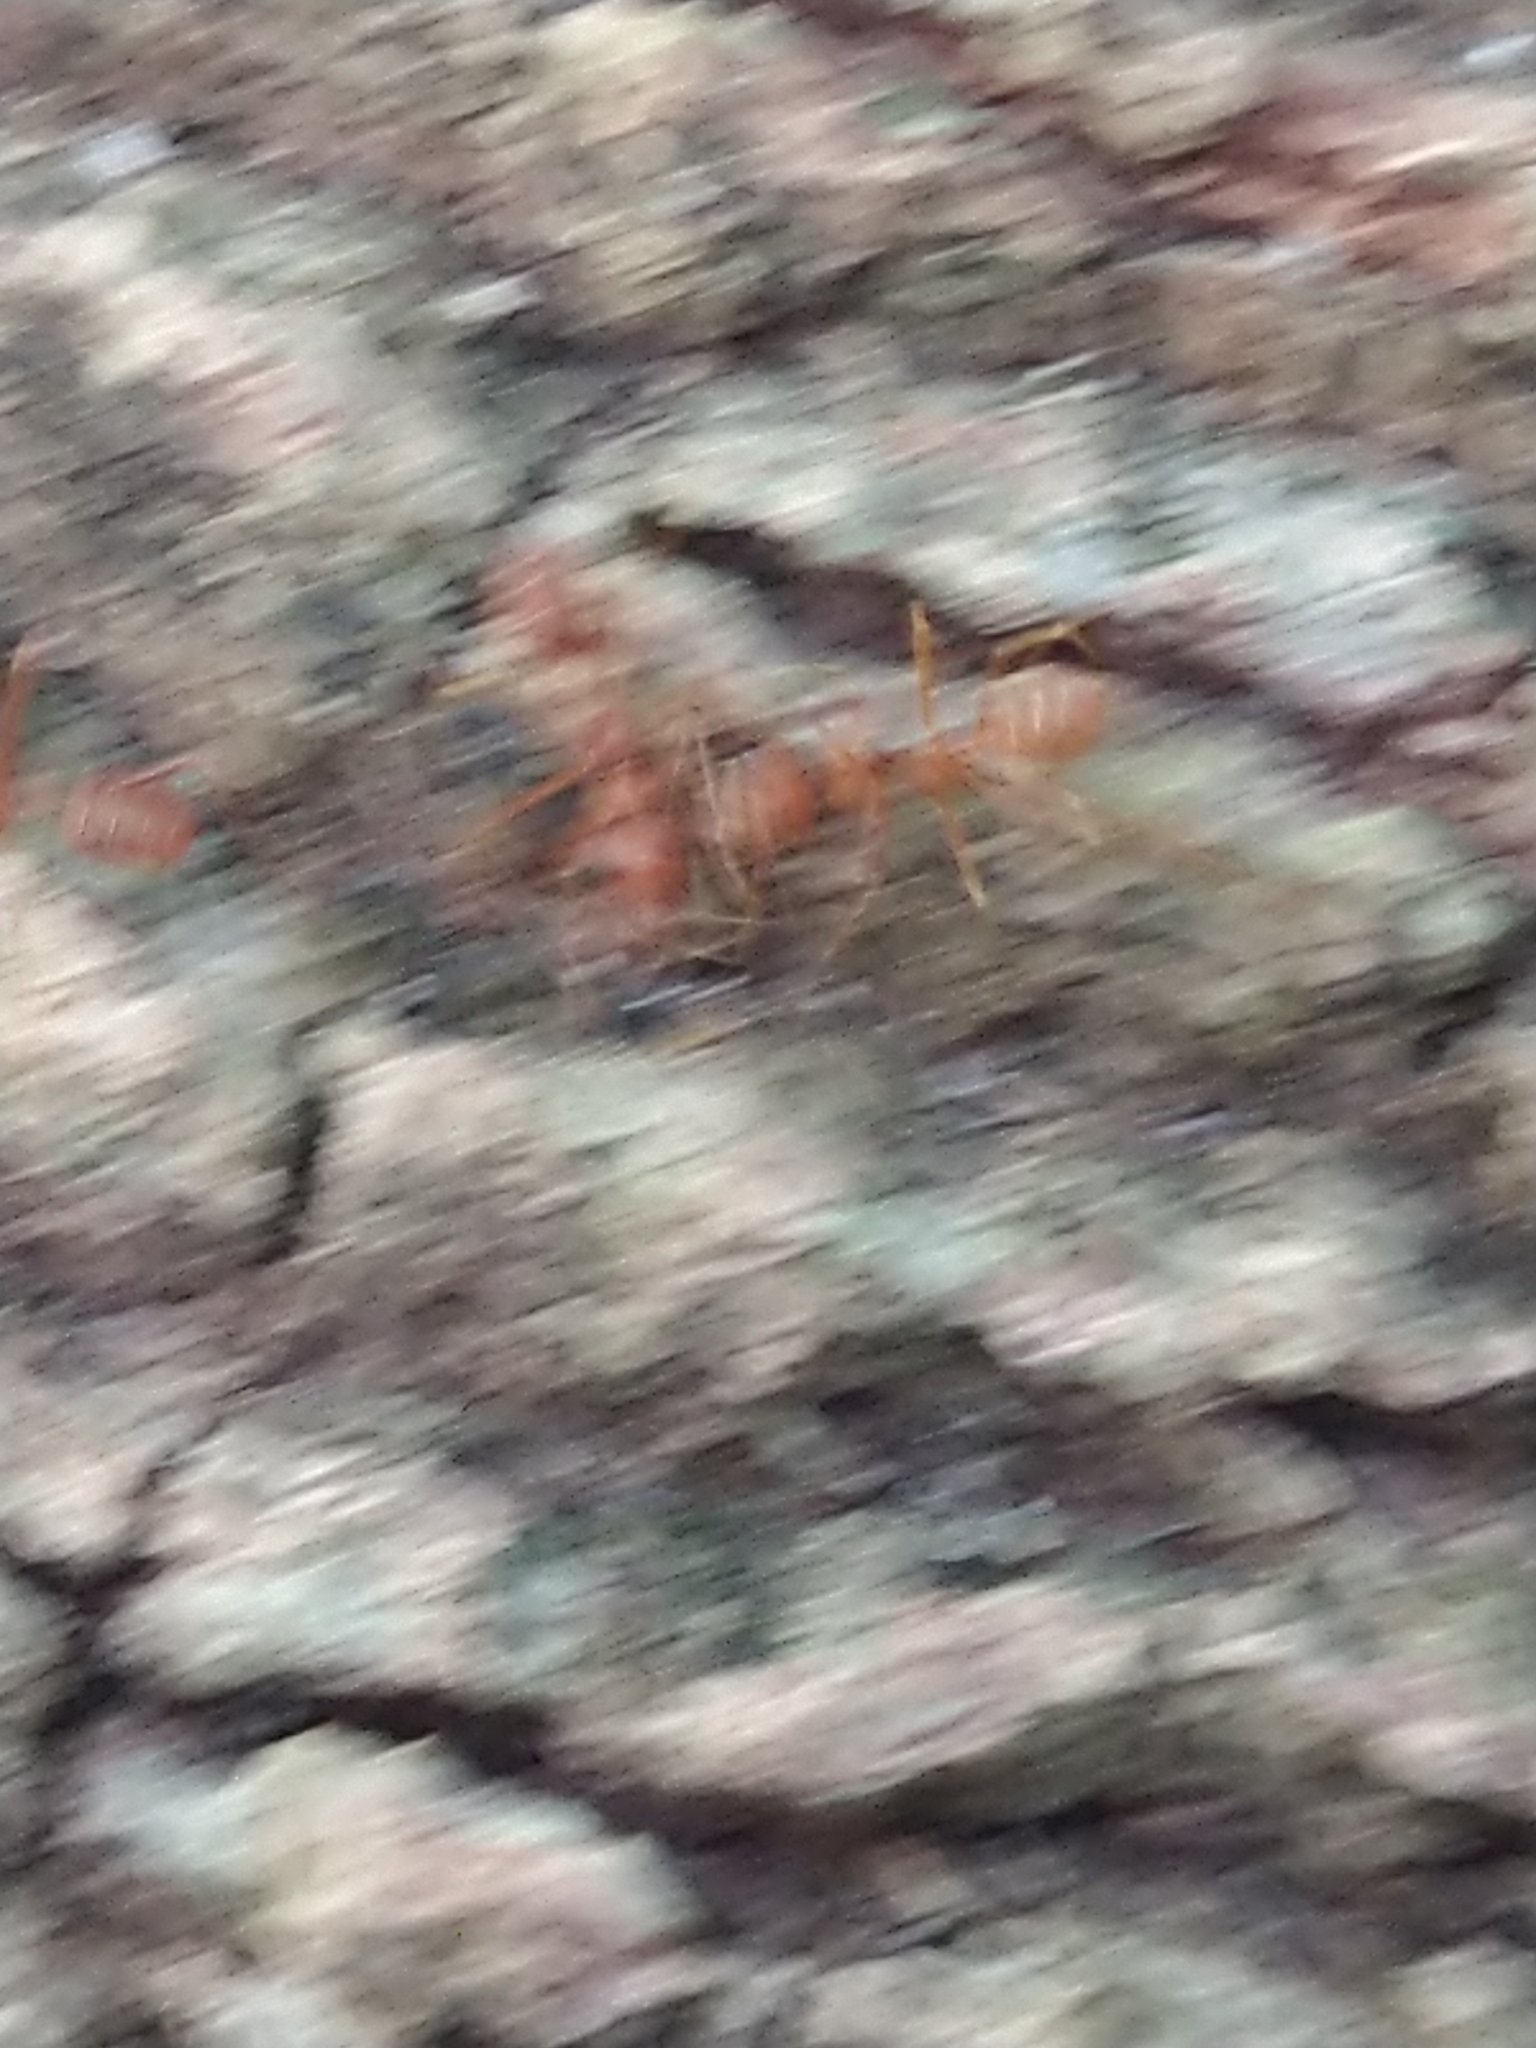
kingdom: Animalia
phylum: Arthropoda
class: Insecta
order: Hymenoptera
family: Formicidae
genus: Oecophylla
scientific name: Oecophylla smaragdina
